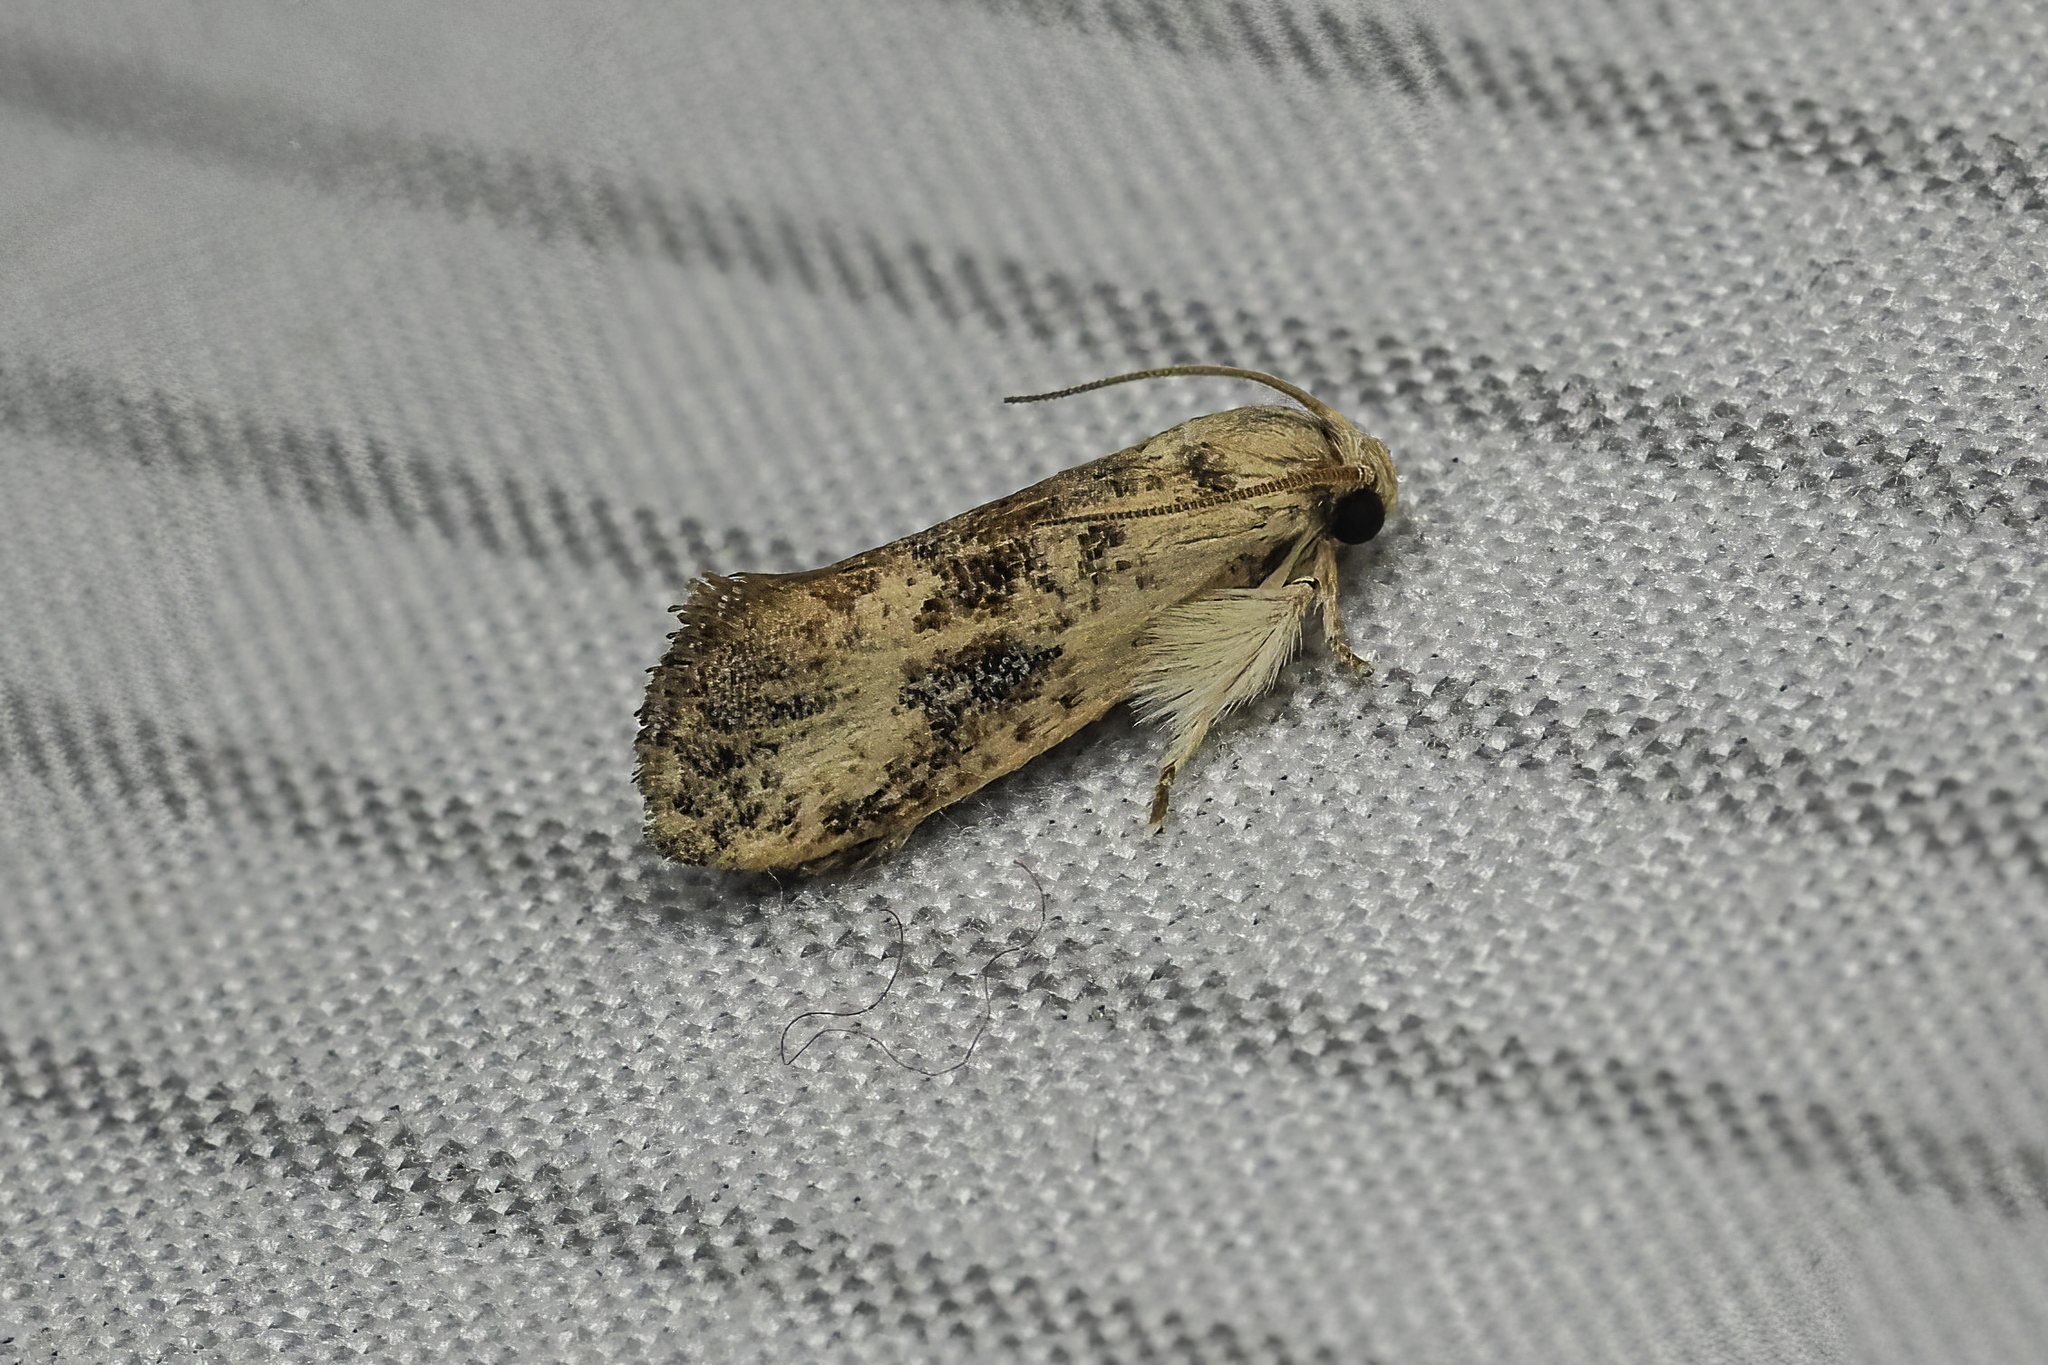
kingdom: Animalia
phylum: Arthropoda
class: Insecta
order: Lepidoptera
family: Tineidae
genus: Acrolophus
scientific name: Acrolophus mycetophagus
